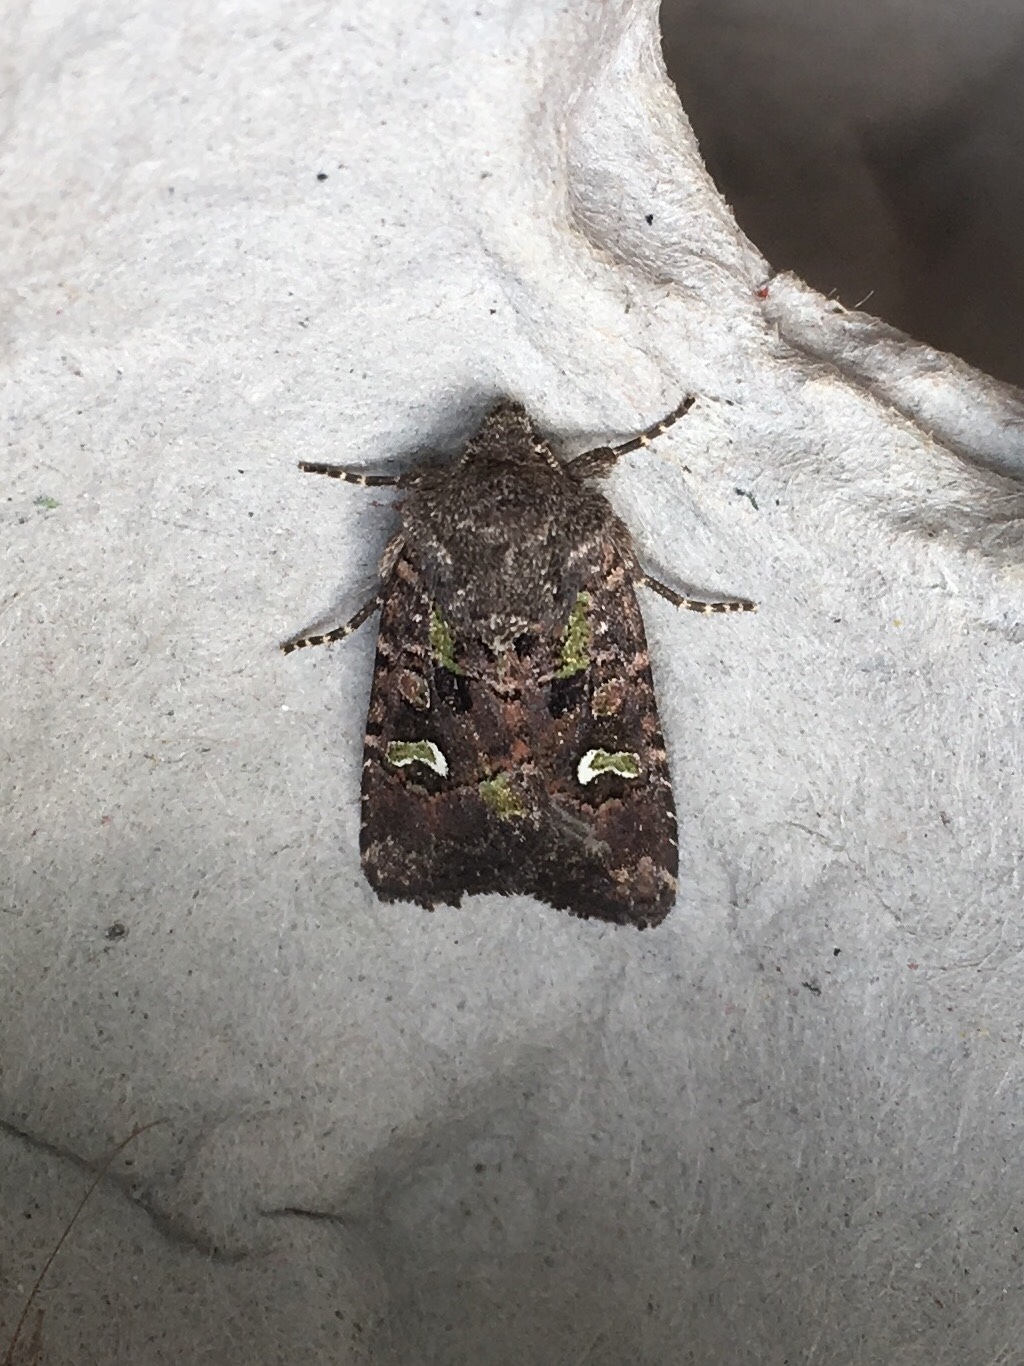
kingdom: Animalia
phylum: Arthropoda
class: Insecta
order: Lepidoptera
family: Noctuidae
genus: Lacinipolia
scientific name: Lacinipolia renigera
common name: Kidney-spotted minor
